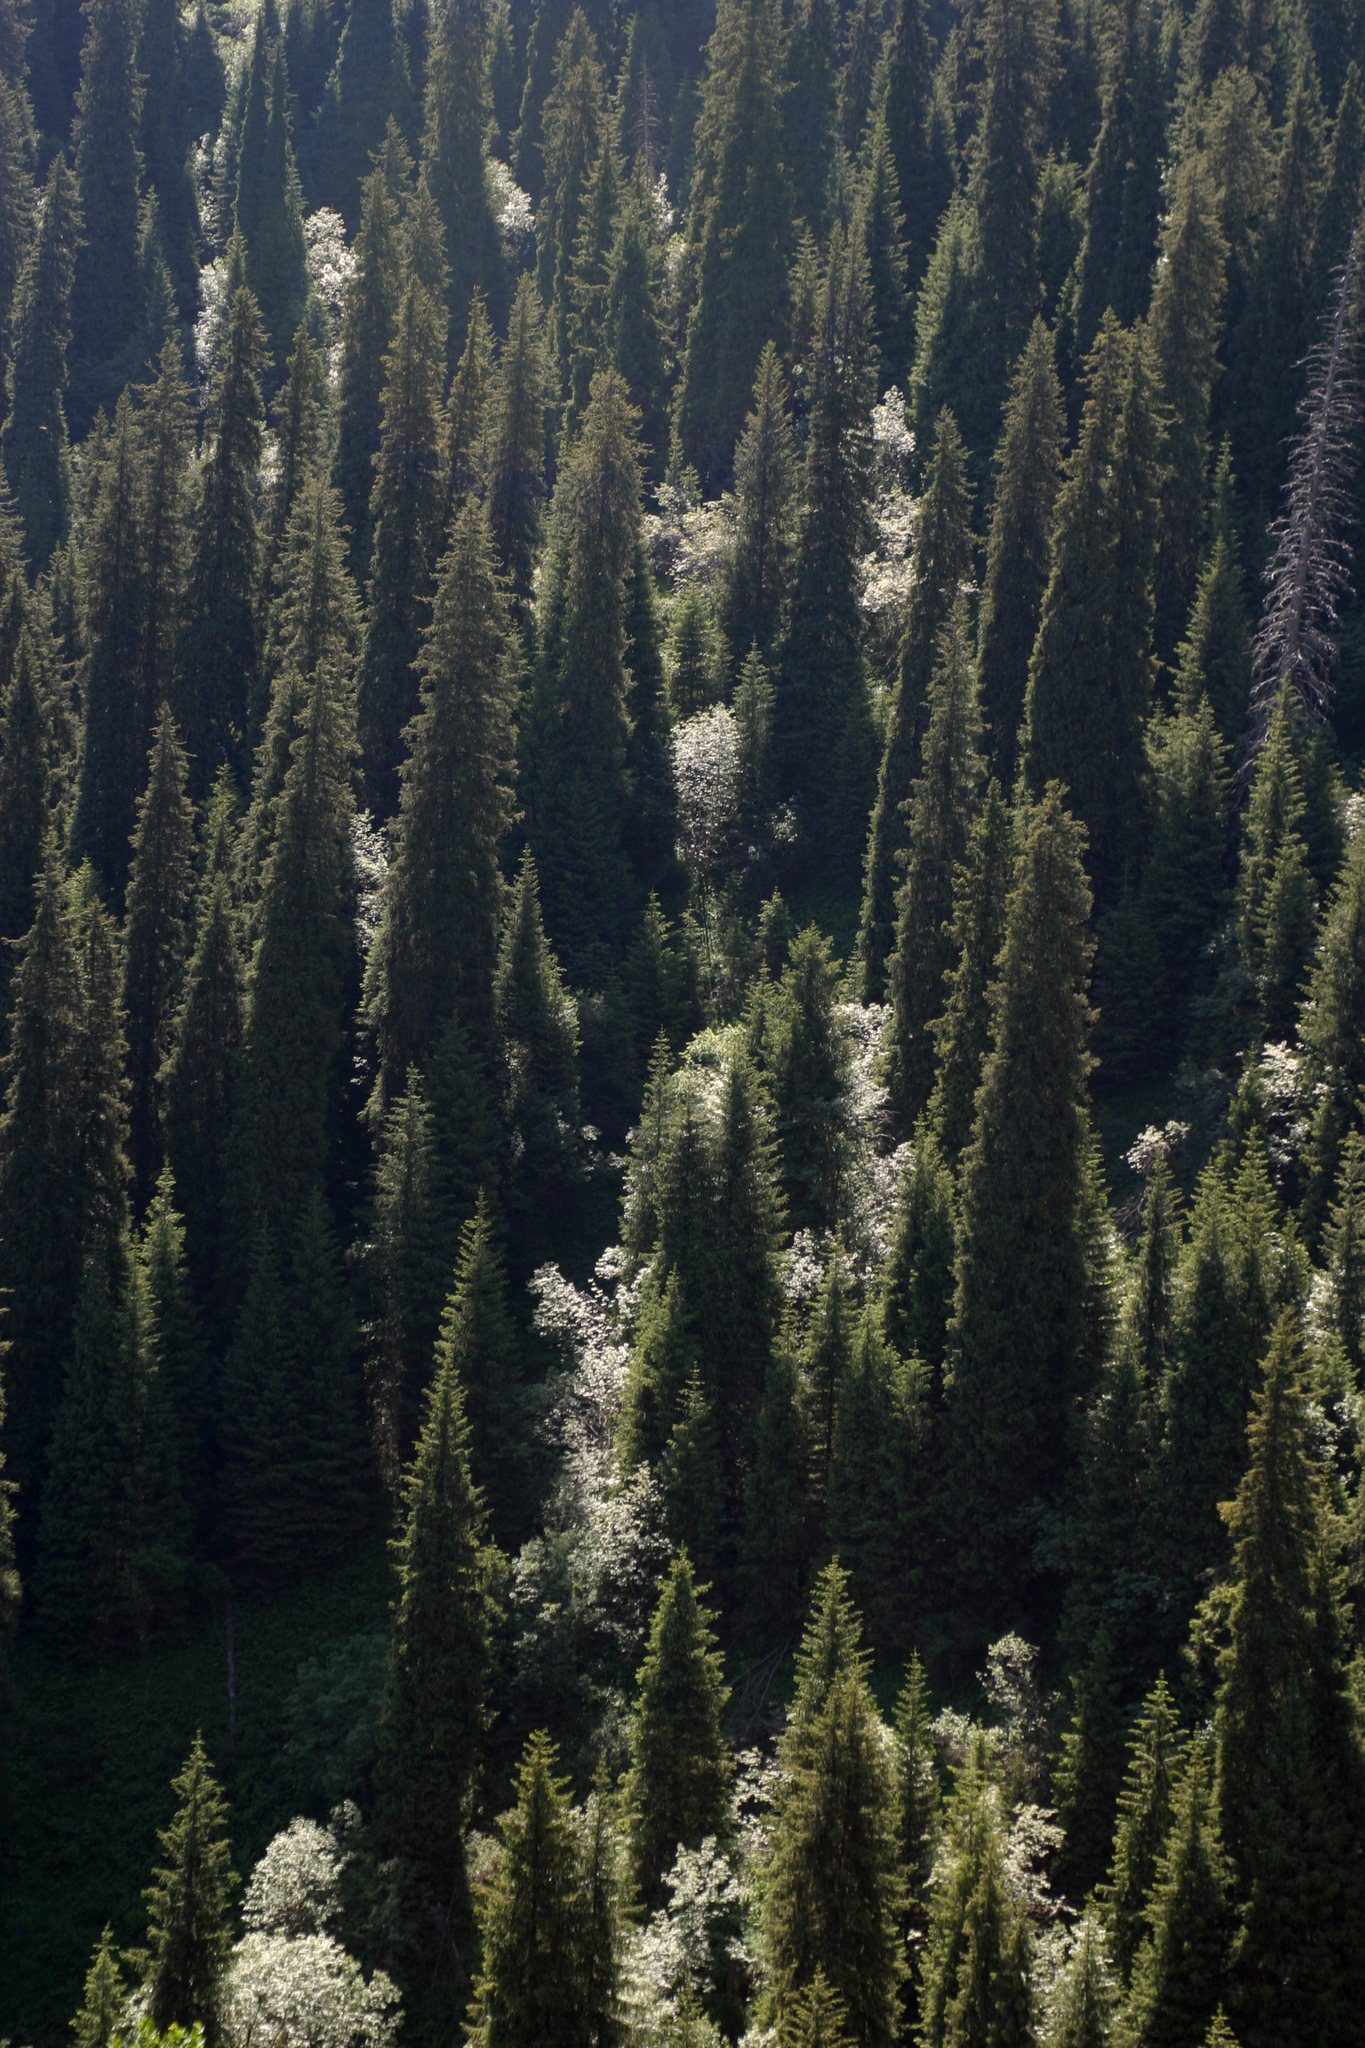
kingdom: Plantae
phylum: Tracheophyta
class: Magnoliopsida
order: Malpighiales
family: Salicaceae
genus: Populus
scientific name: Populus tremula
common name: European aspen
